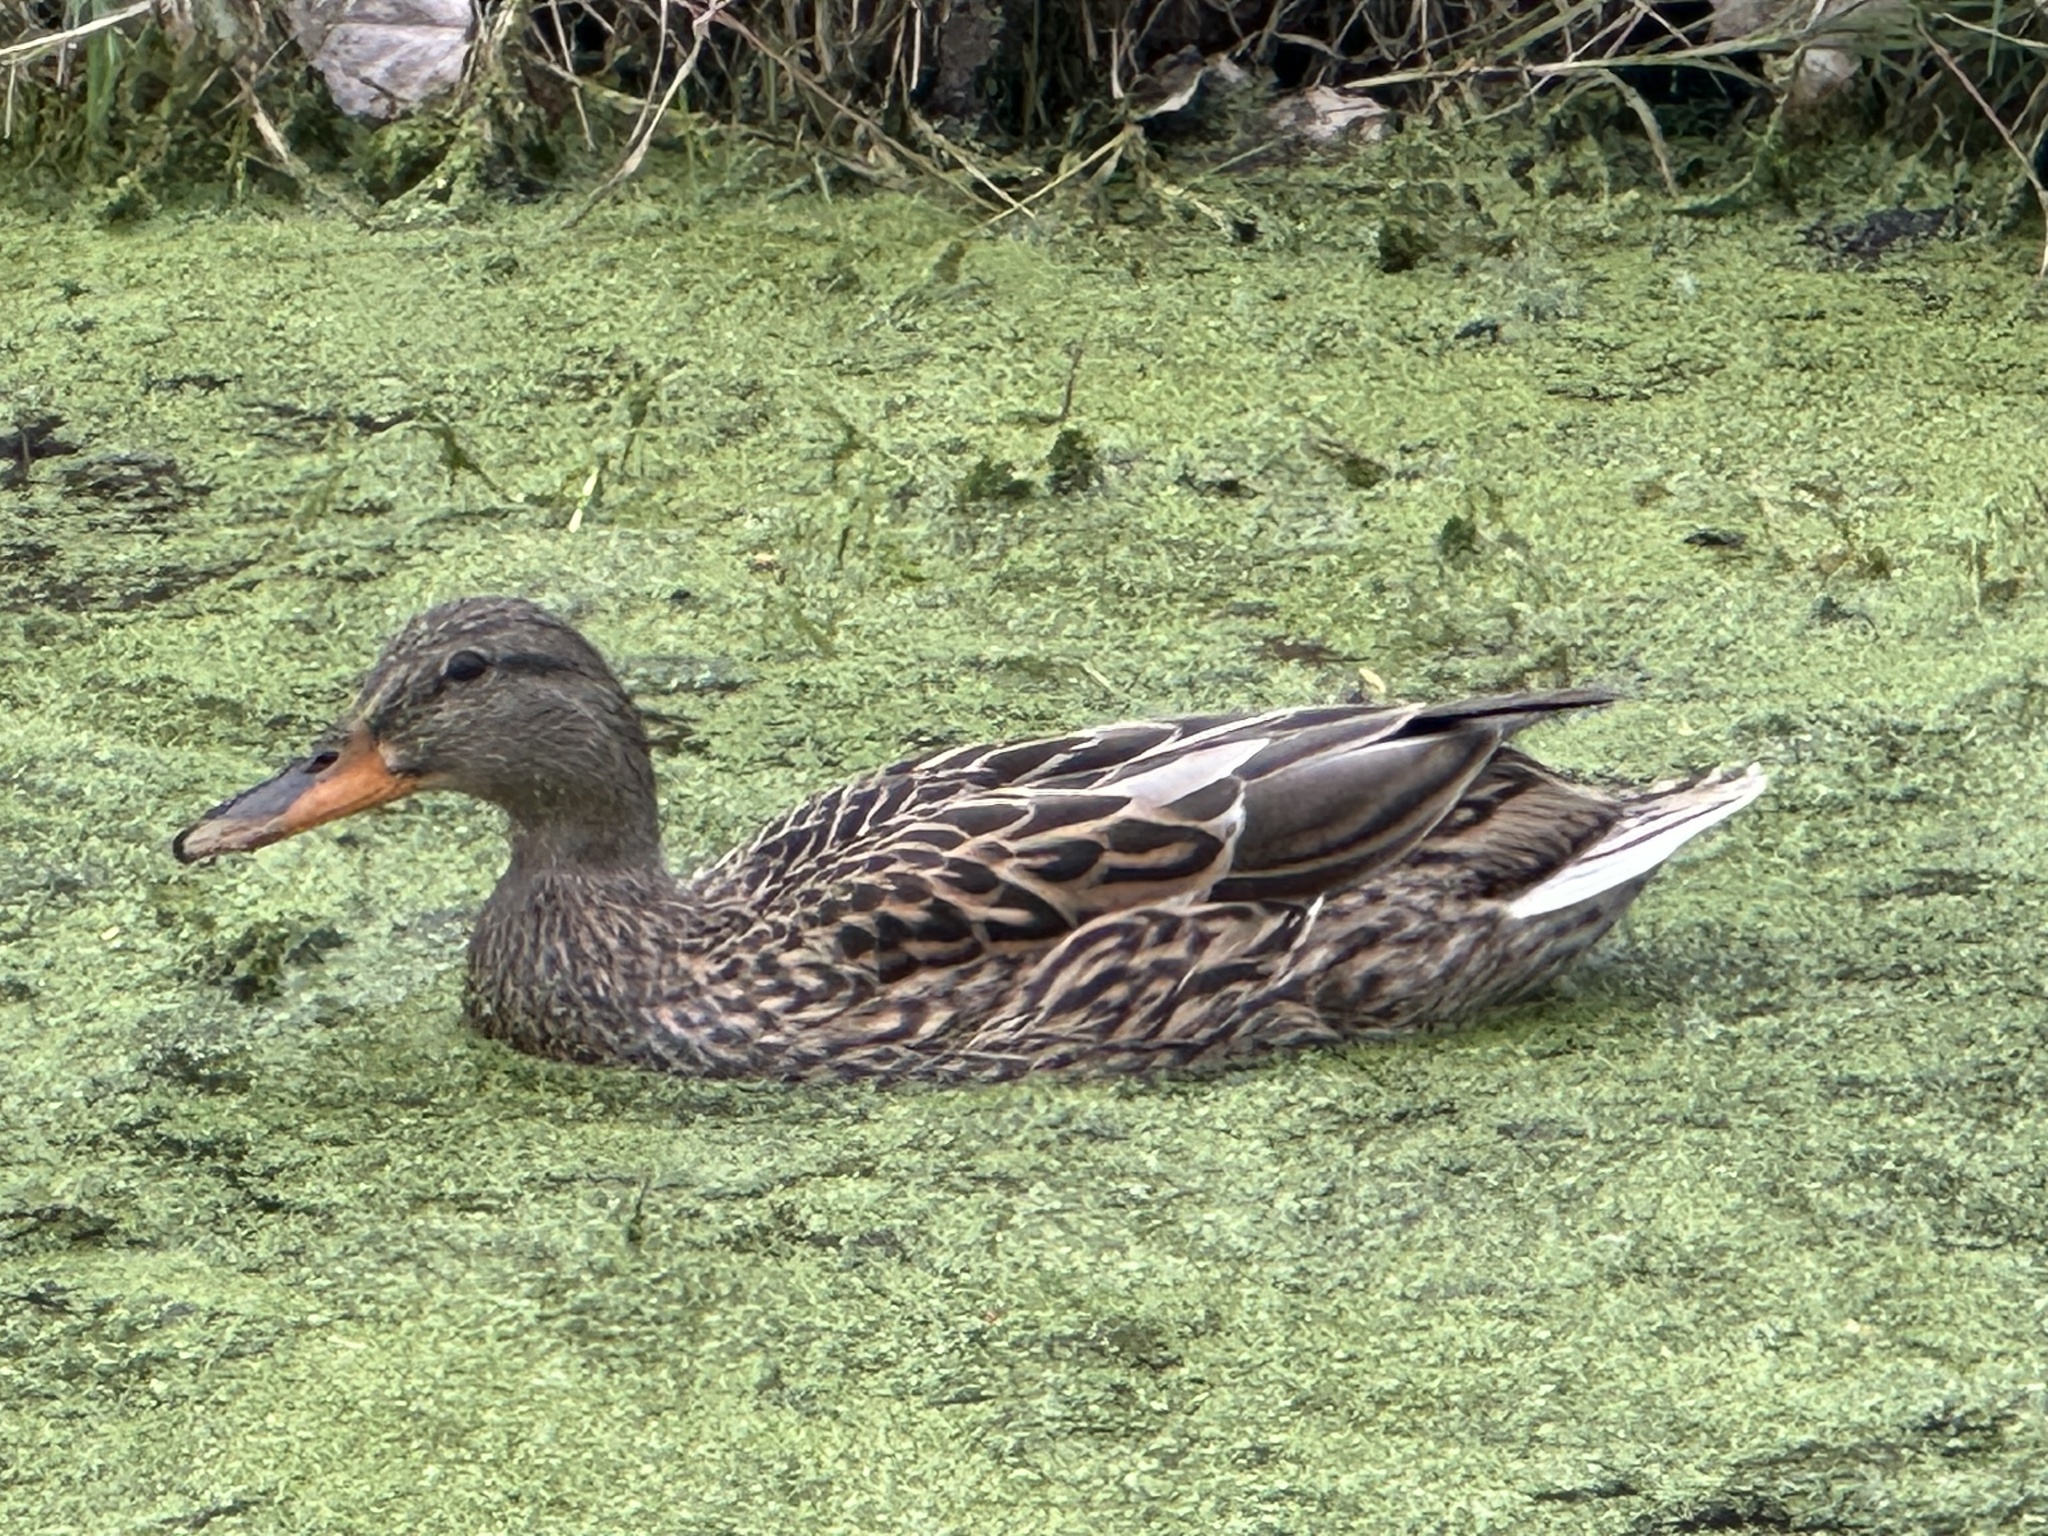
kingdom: Animalia
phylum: Chordata
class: Aves
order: Anseriformes
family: Anatidae
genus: Anas
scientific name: Anas platyrhynchos
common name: Mallard
